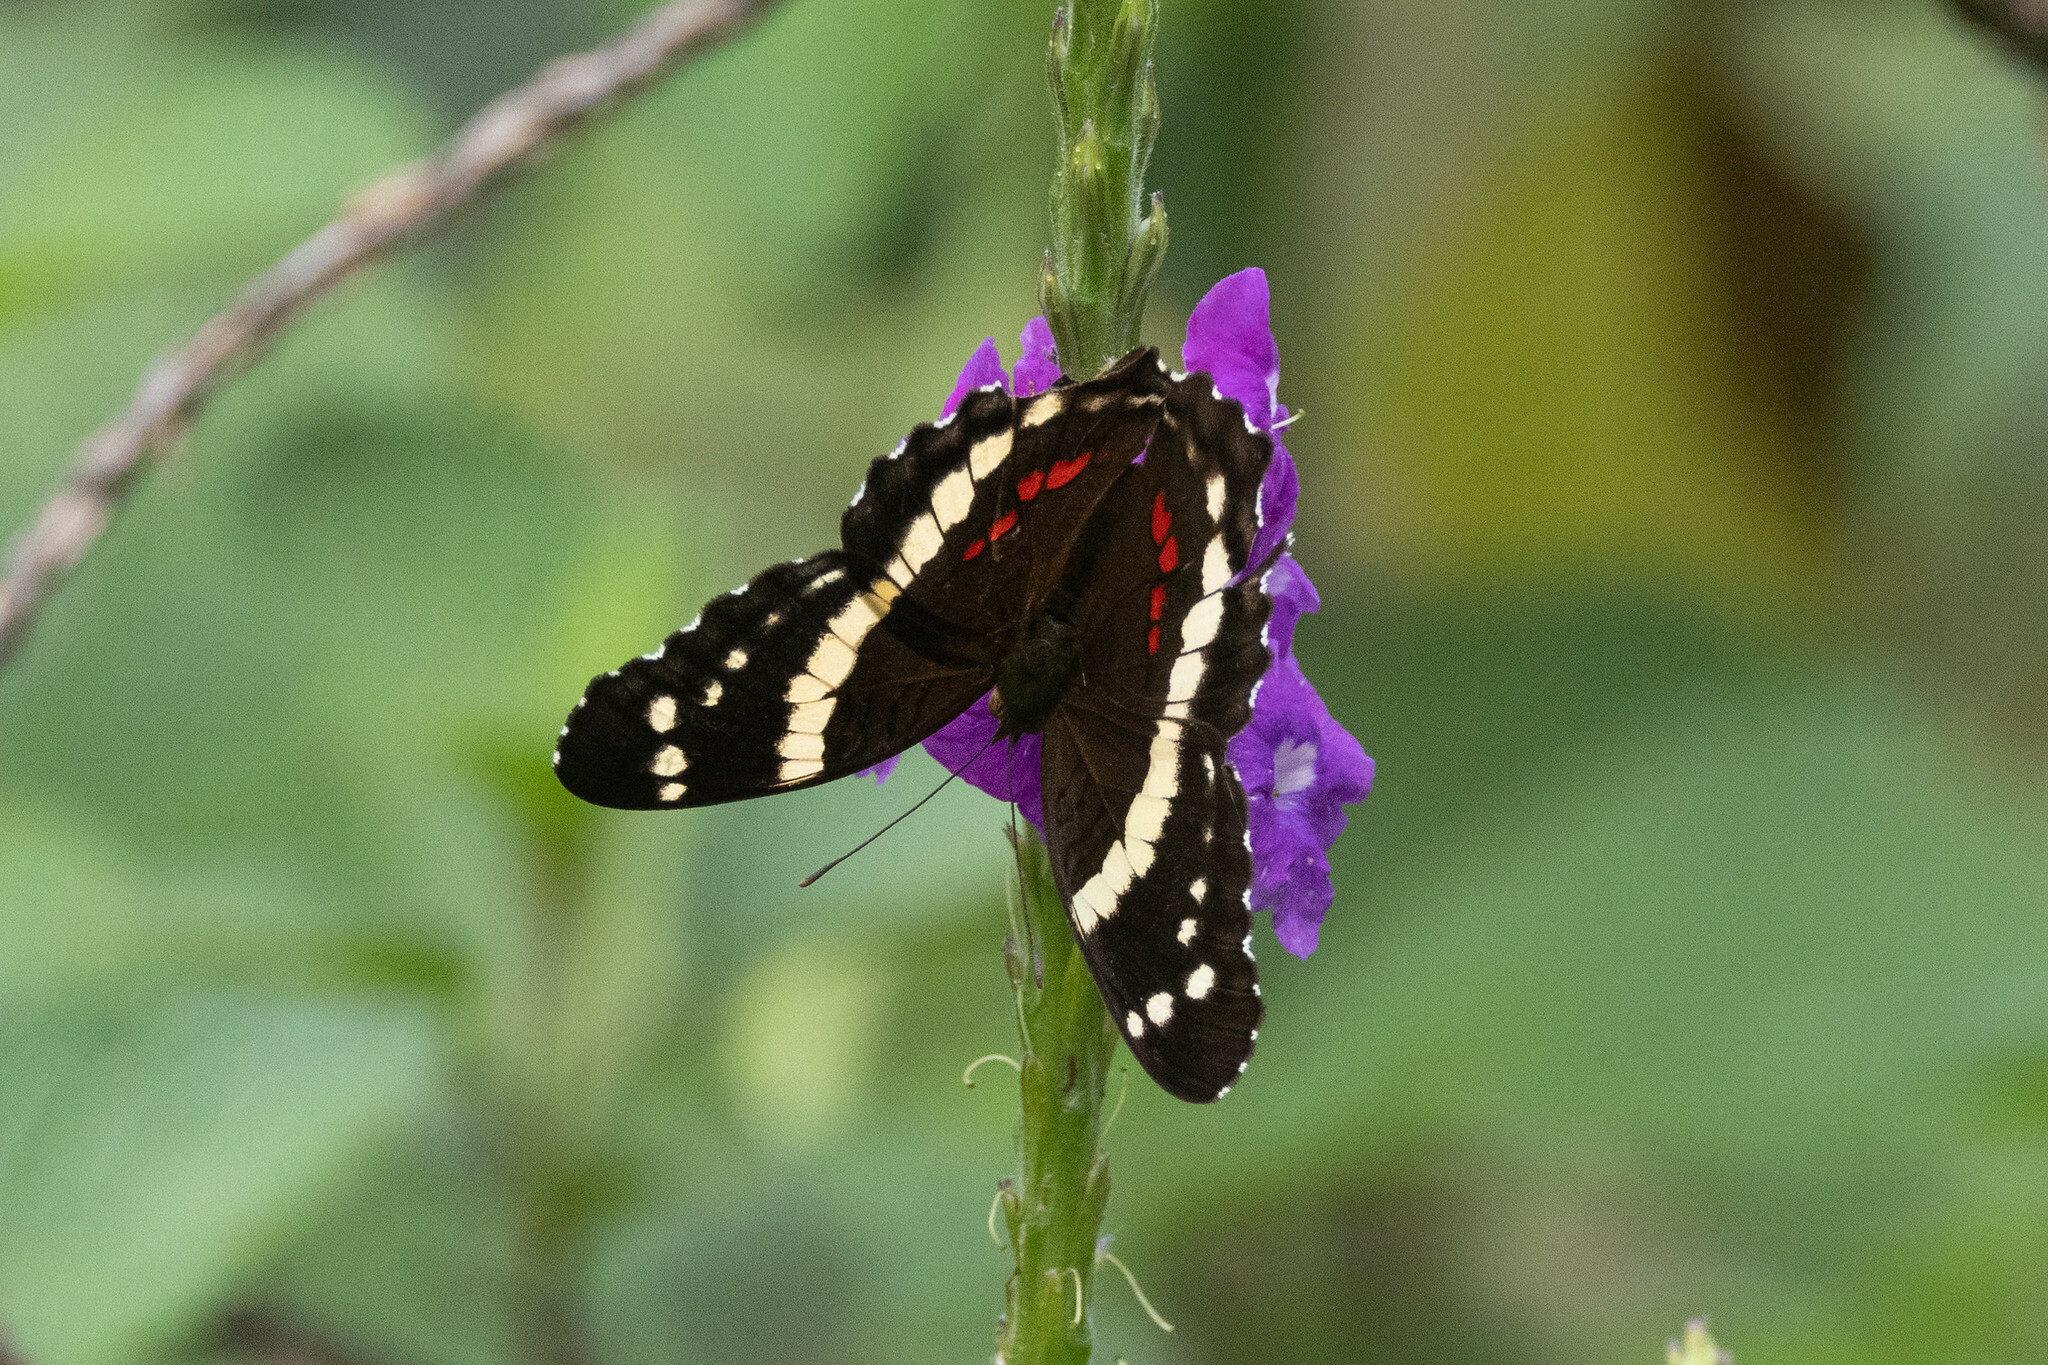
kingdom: Animalia
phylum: Arthropoda
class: Insecta
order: Lepidoptera
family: Nymphalidae
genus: Anartia
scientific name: Anartia fatima
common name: Banded peacock
